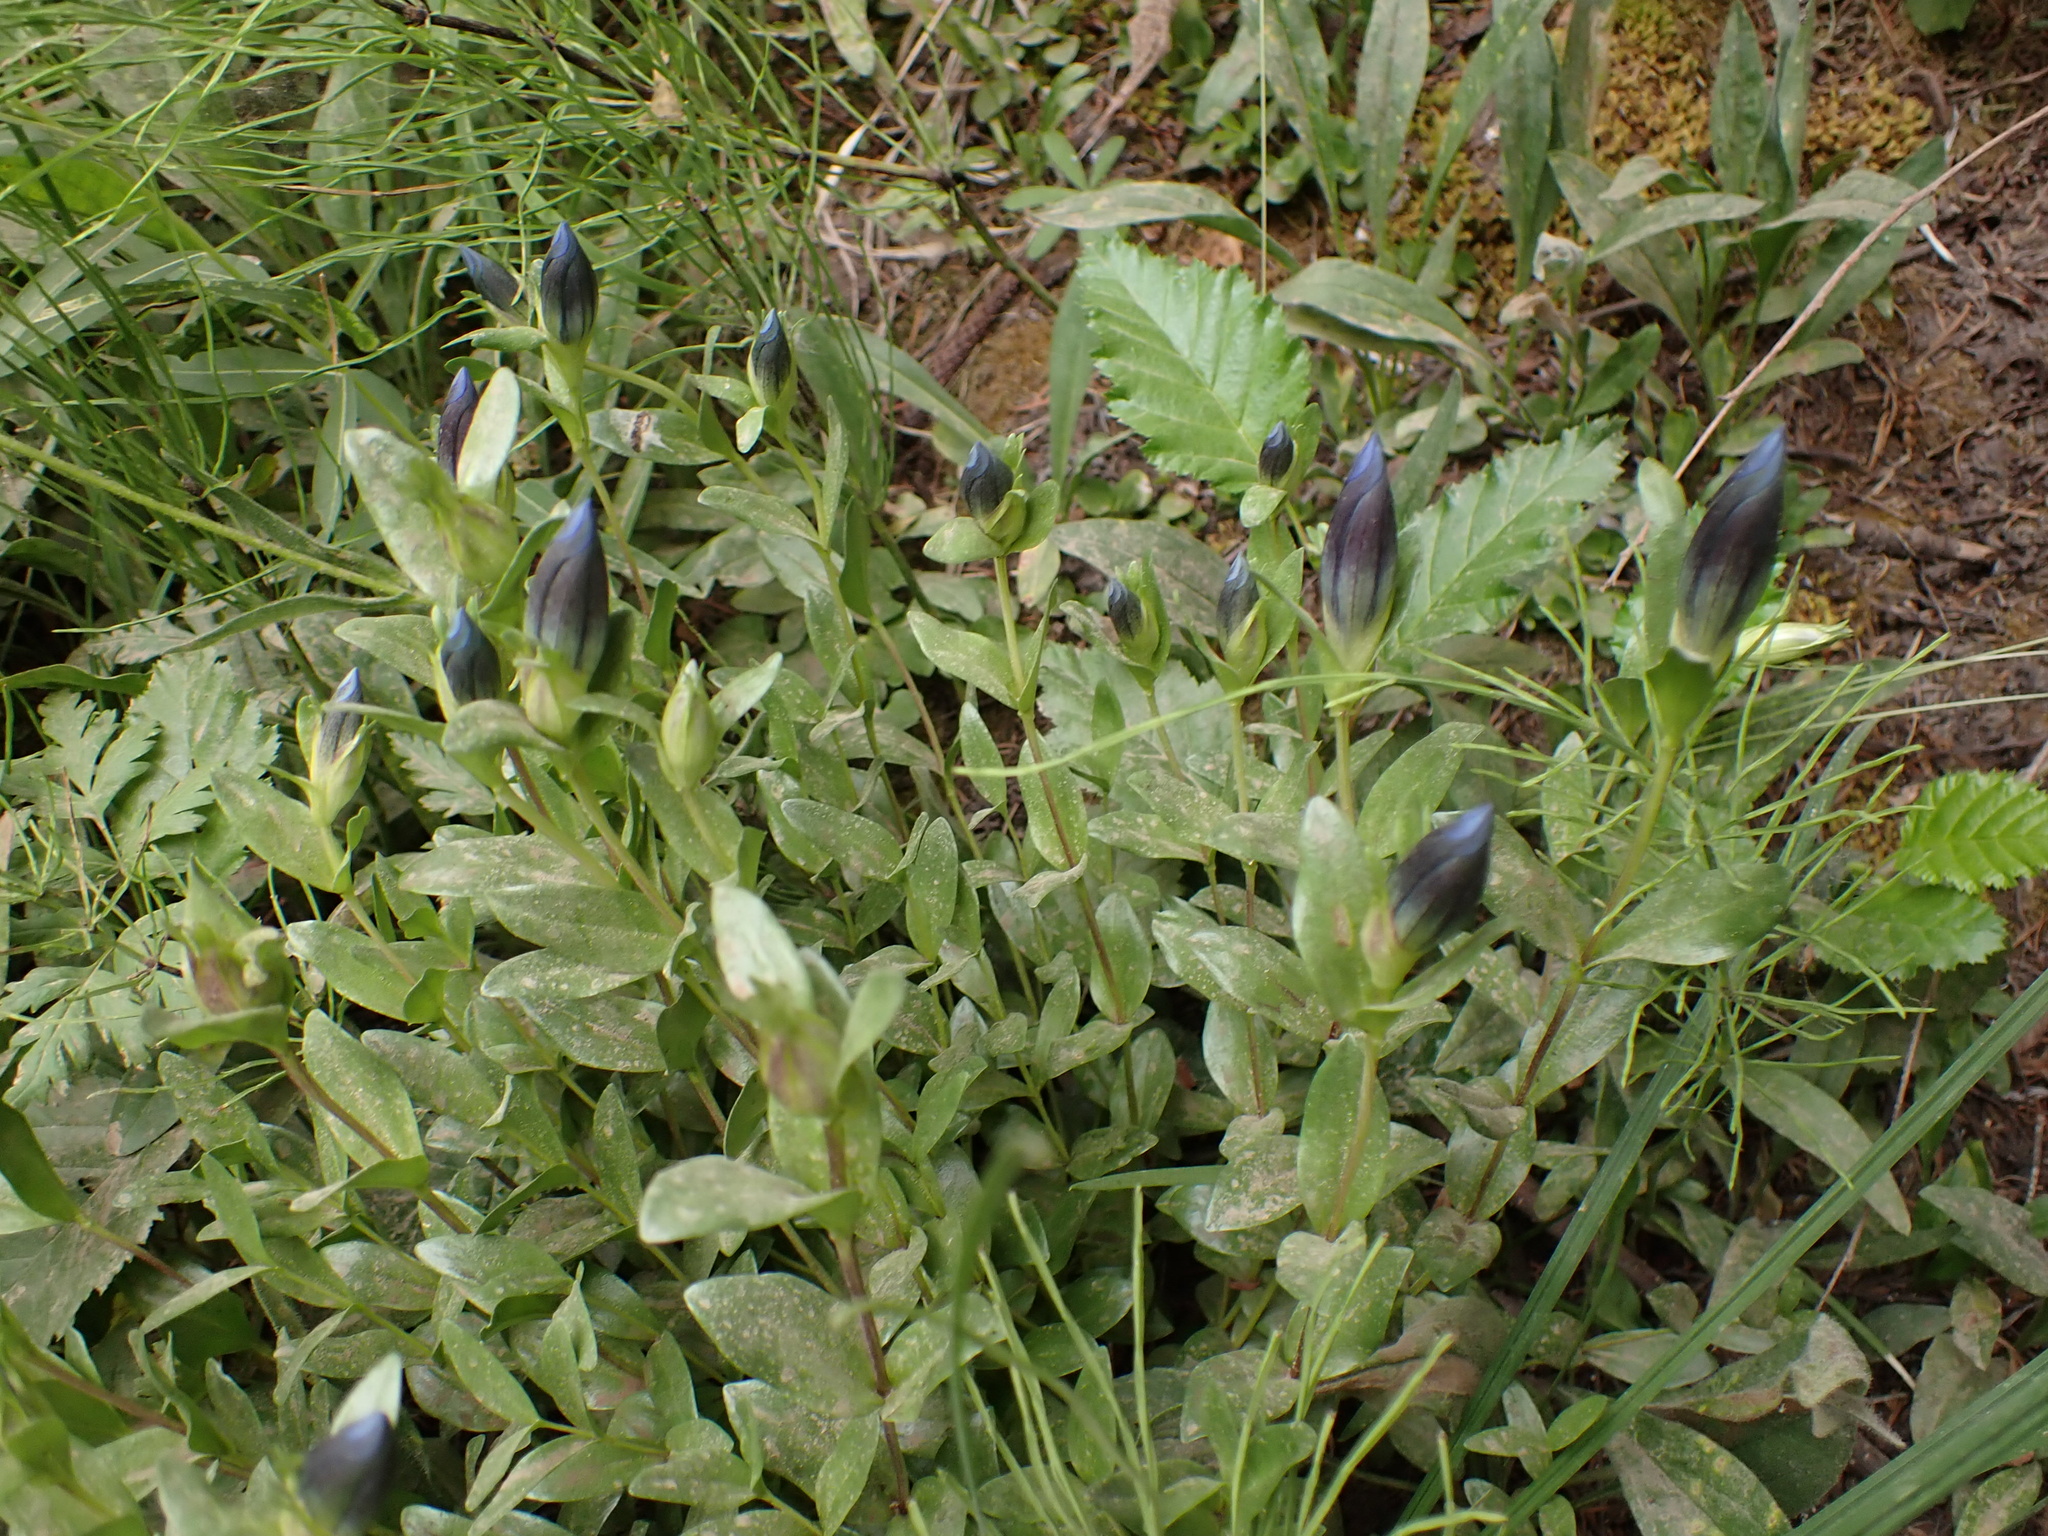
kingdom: Plantae
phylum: Tracheophyta
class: Magnoliopsida
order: Gentianales
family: Gentianaceae
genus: Gentiana
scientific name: Gentiana calycosa
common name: Rainier pleated gentian
